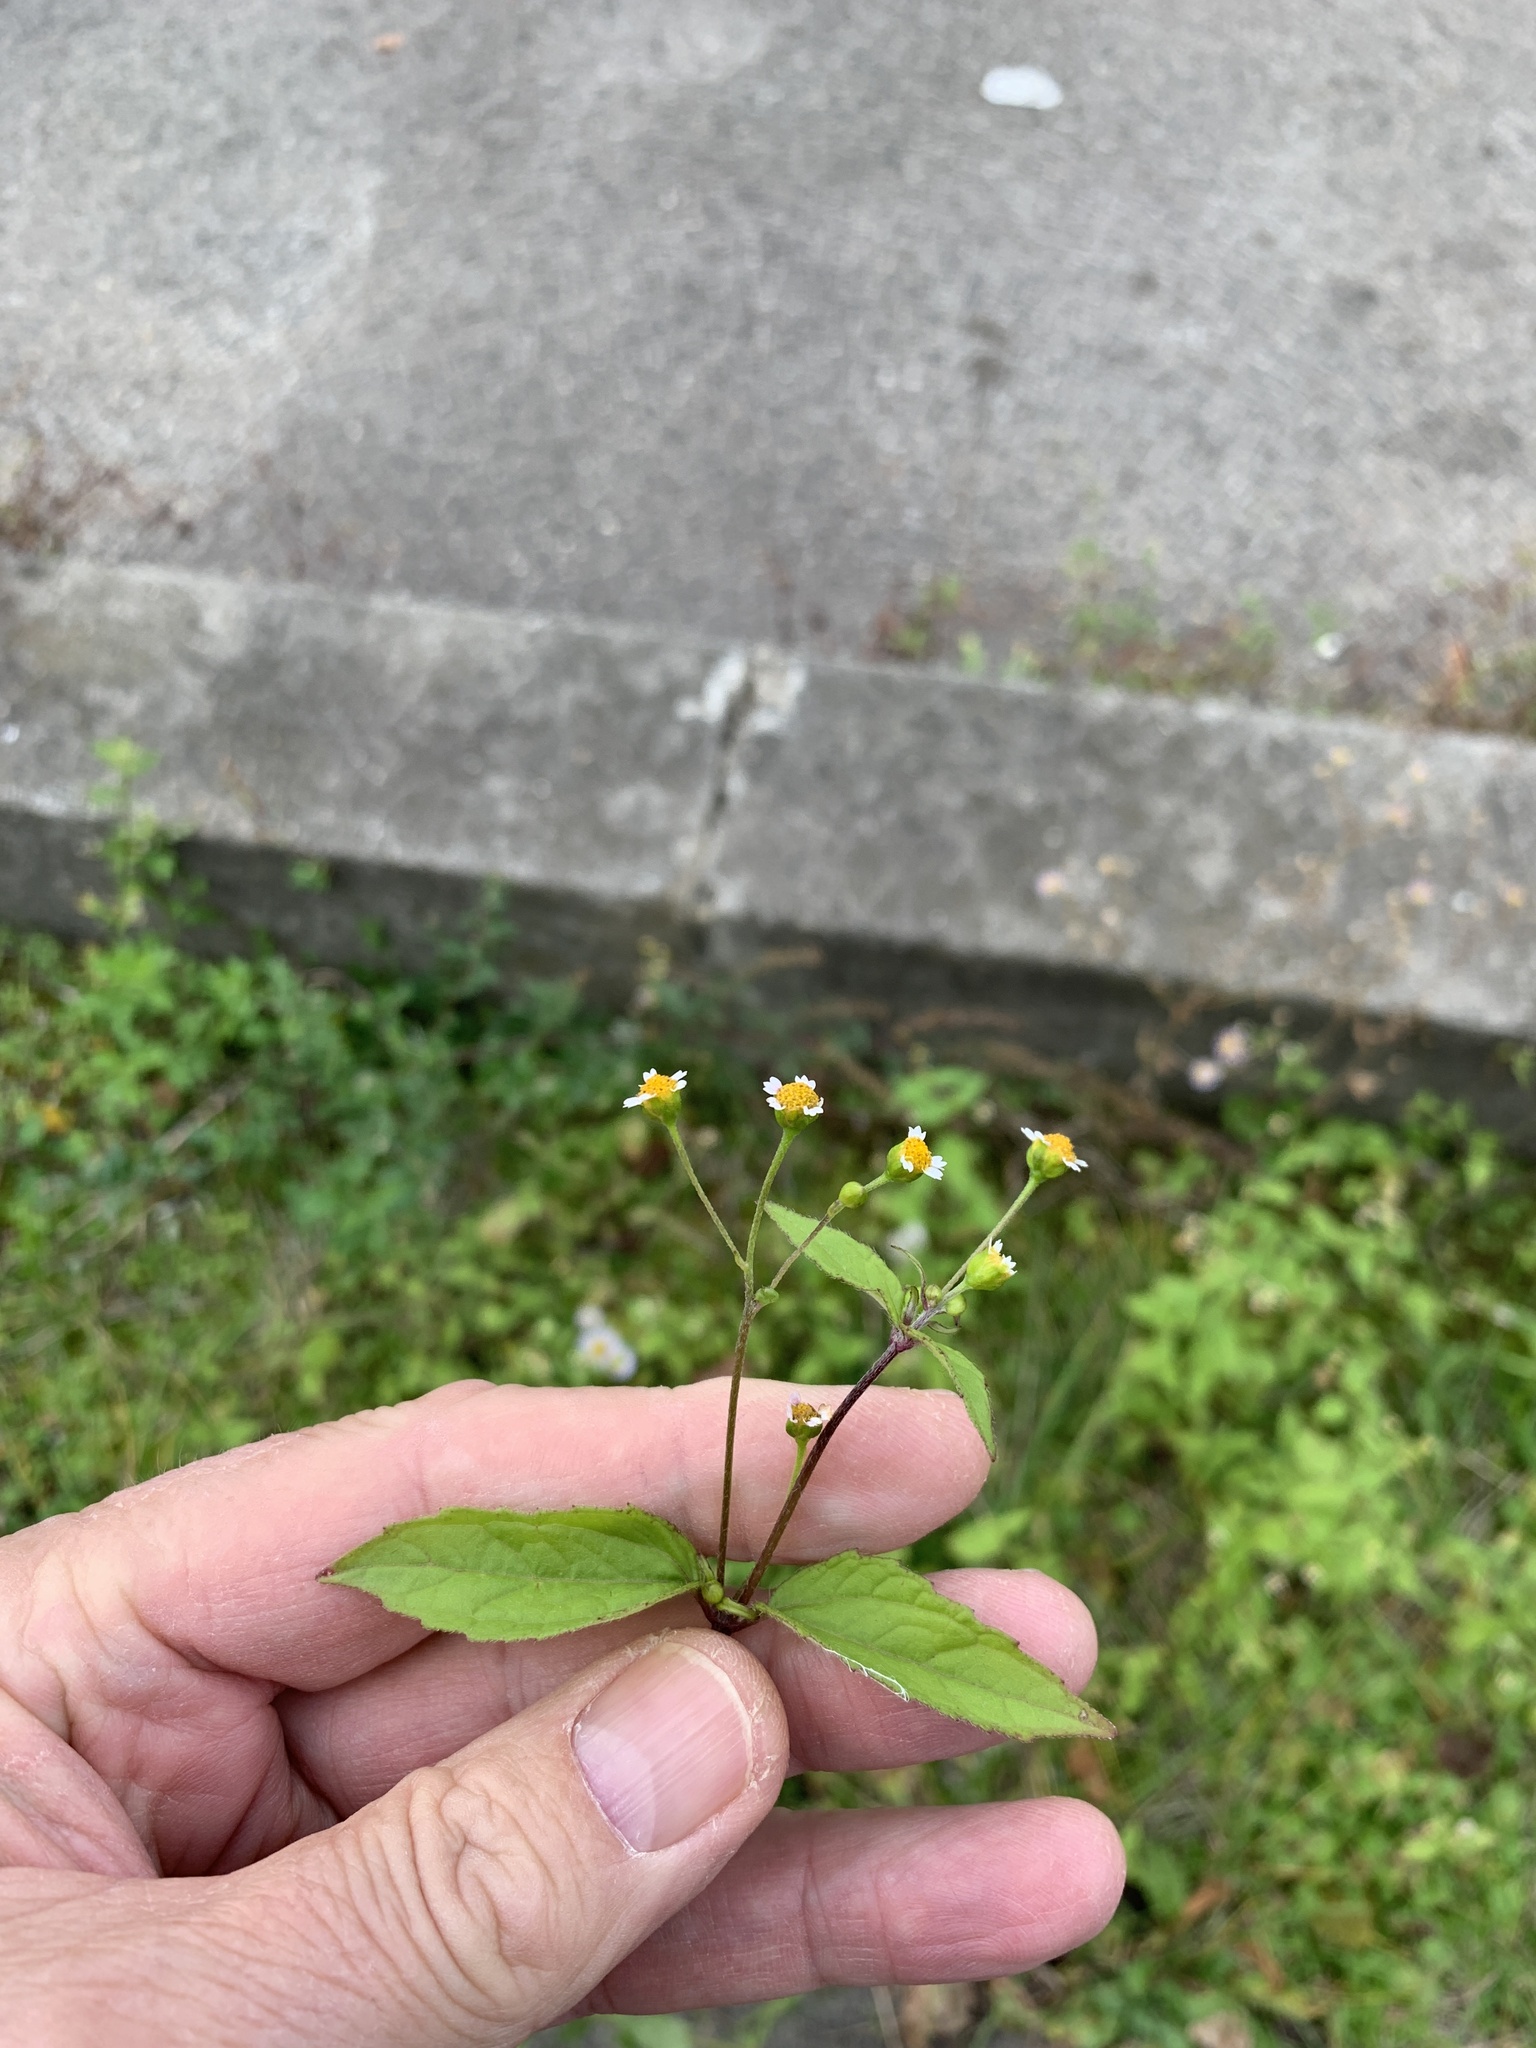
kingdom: Plantae
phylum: Tracheophyta
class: Magnoliopsida
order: Asterales
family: Asteraceae
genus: Galinsoga
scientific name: Galinsoga parviflora
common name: Gallant soldier
